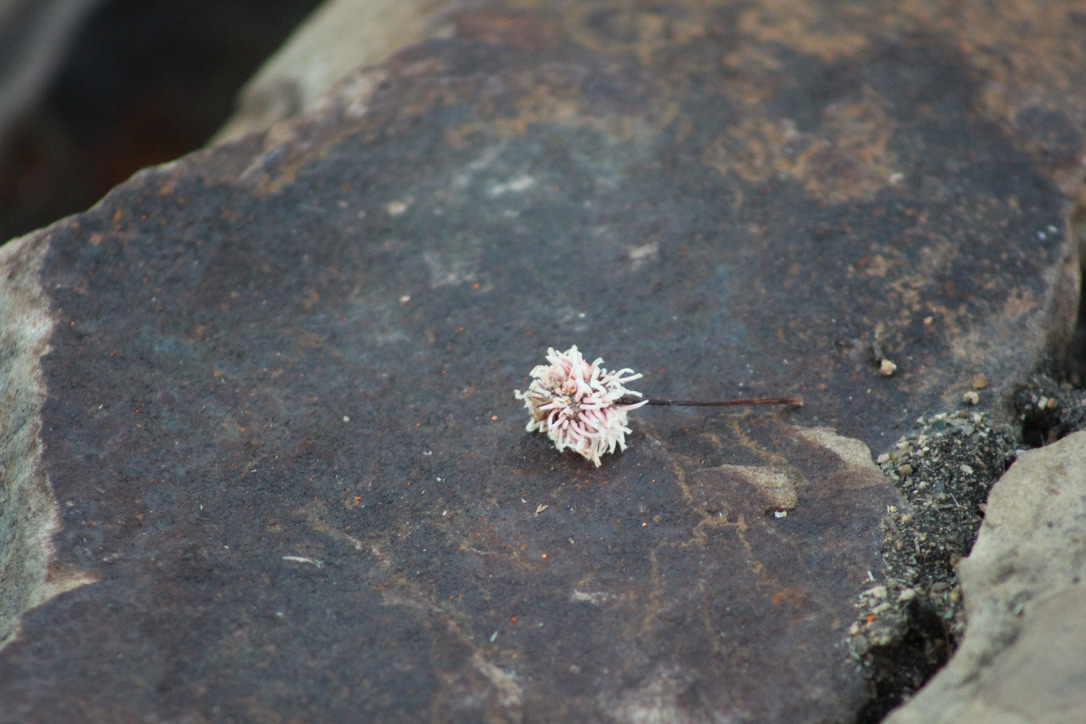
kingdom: Fungi
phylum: Basidiomycota
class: Pucciniomycetes
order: Pucciniales
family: Gymnosporangiaceae
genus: Gymnosporangium
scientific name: Gymnosporangium clavipes
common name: Quince rust
